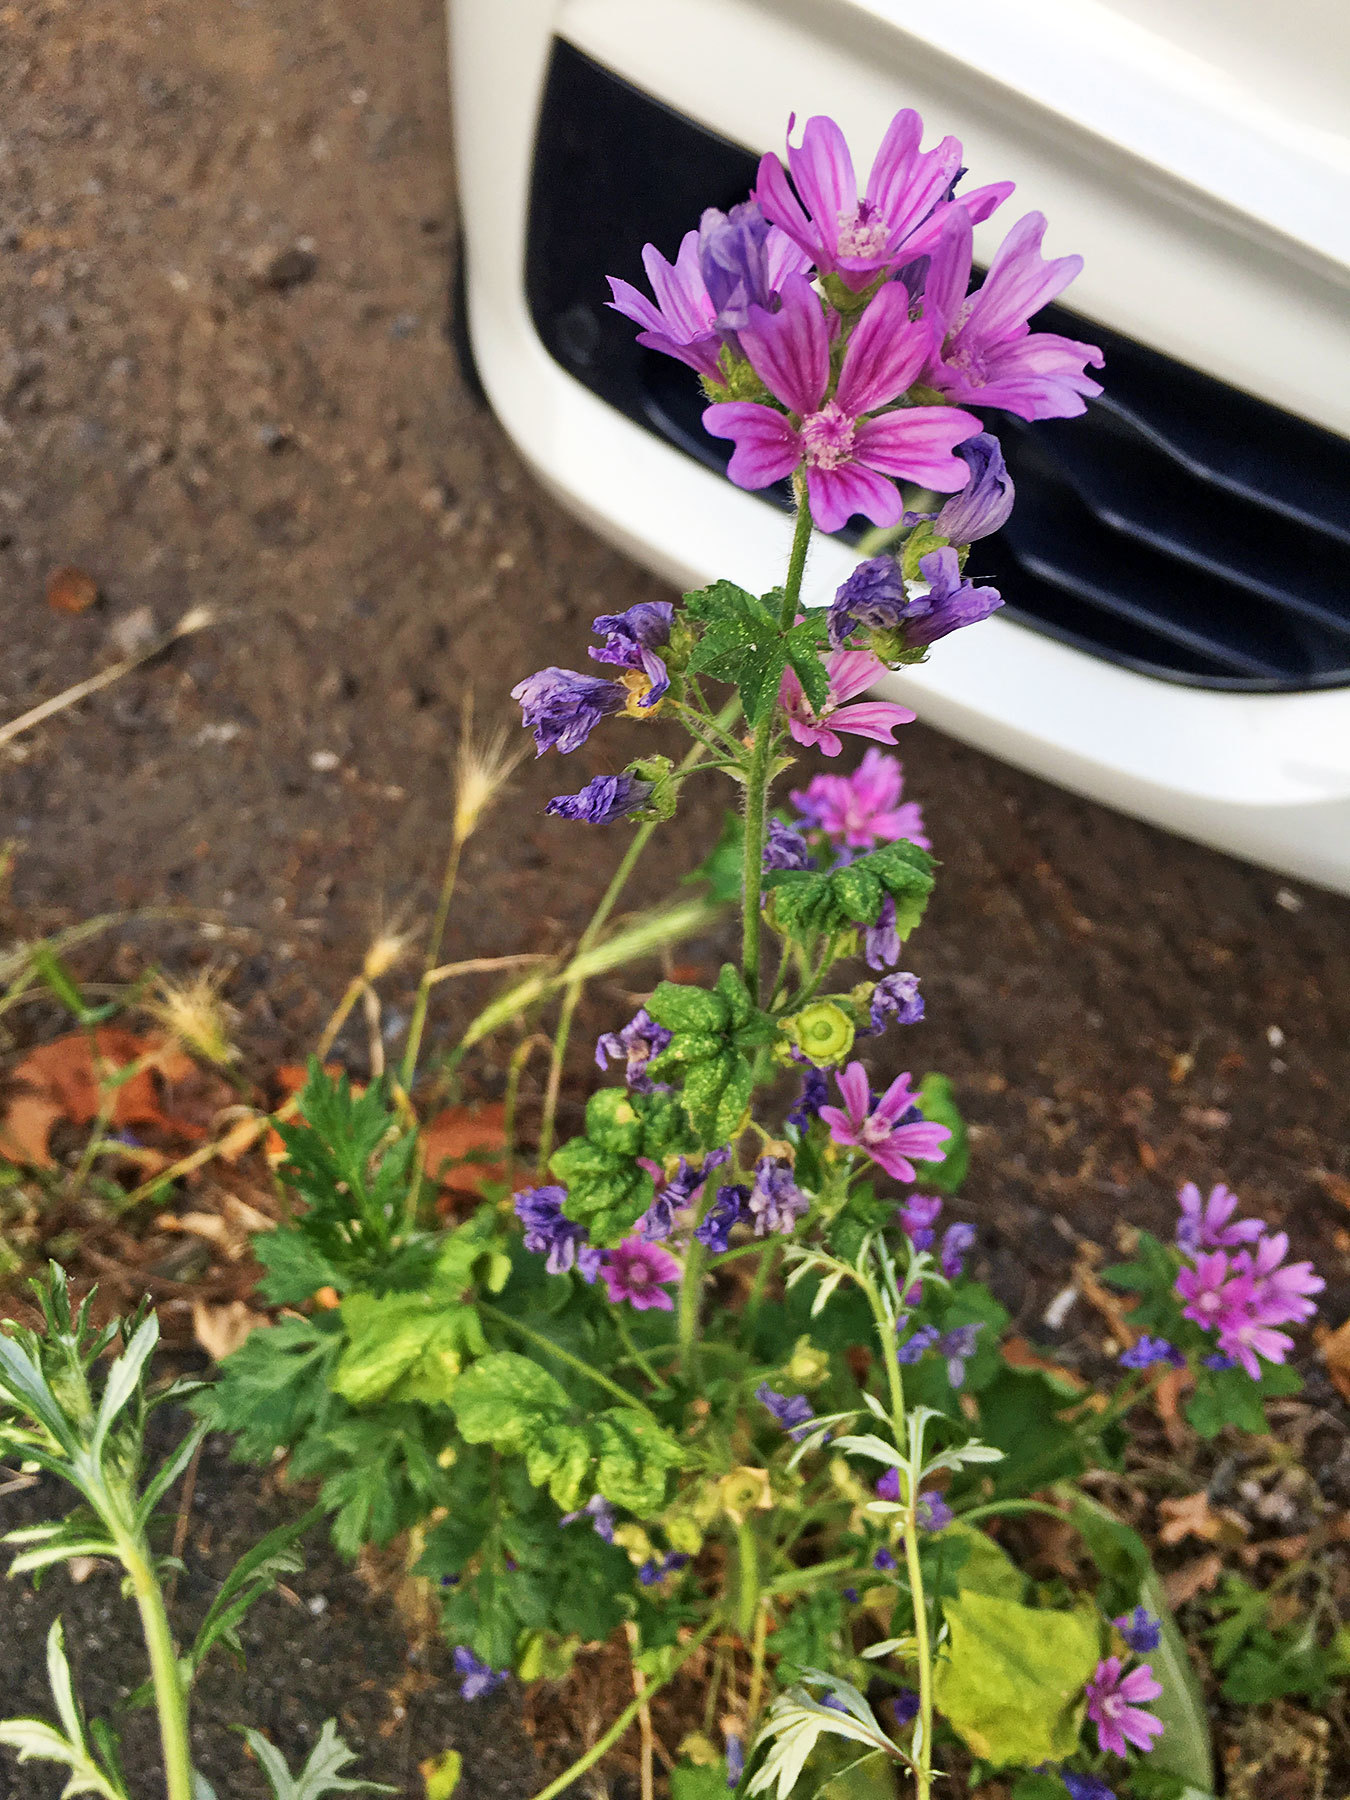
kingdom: Plantae
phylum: Tracheophyta
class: Magnoliopsida
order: Malvales
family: Malvaceae
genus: Malva
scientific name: Malva sylvestris
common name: Common mallow
